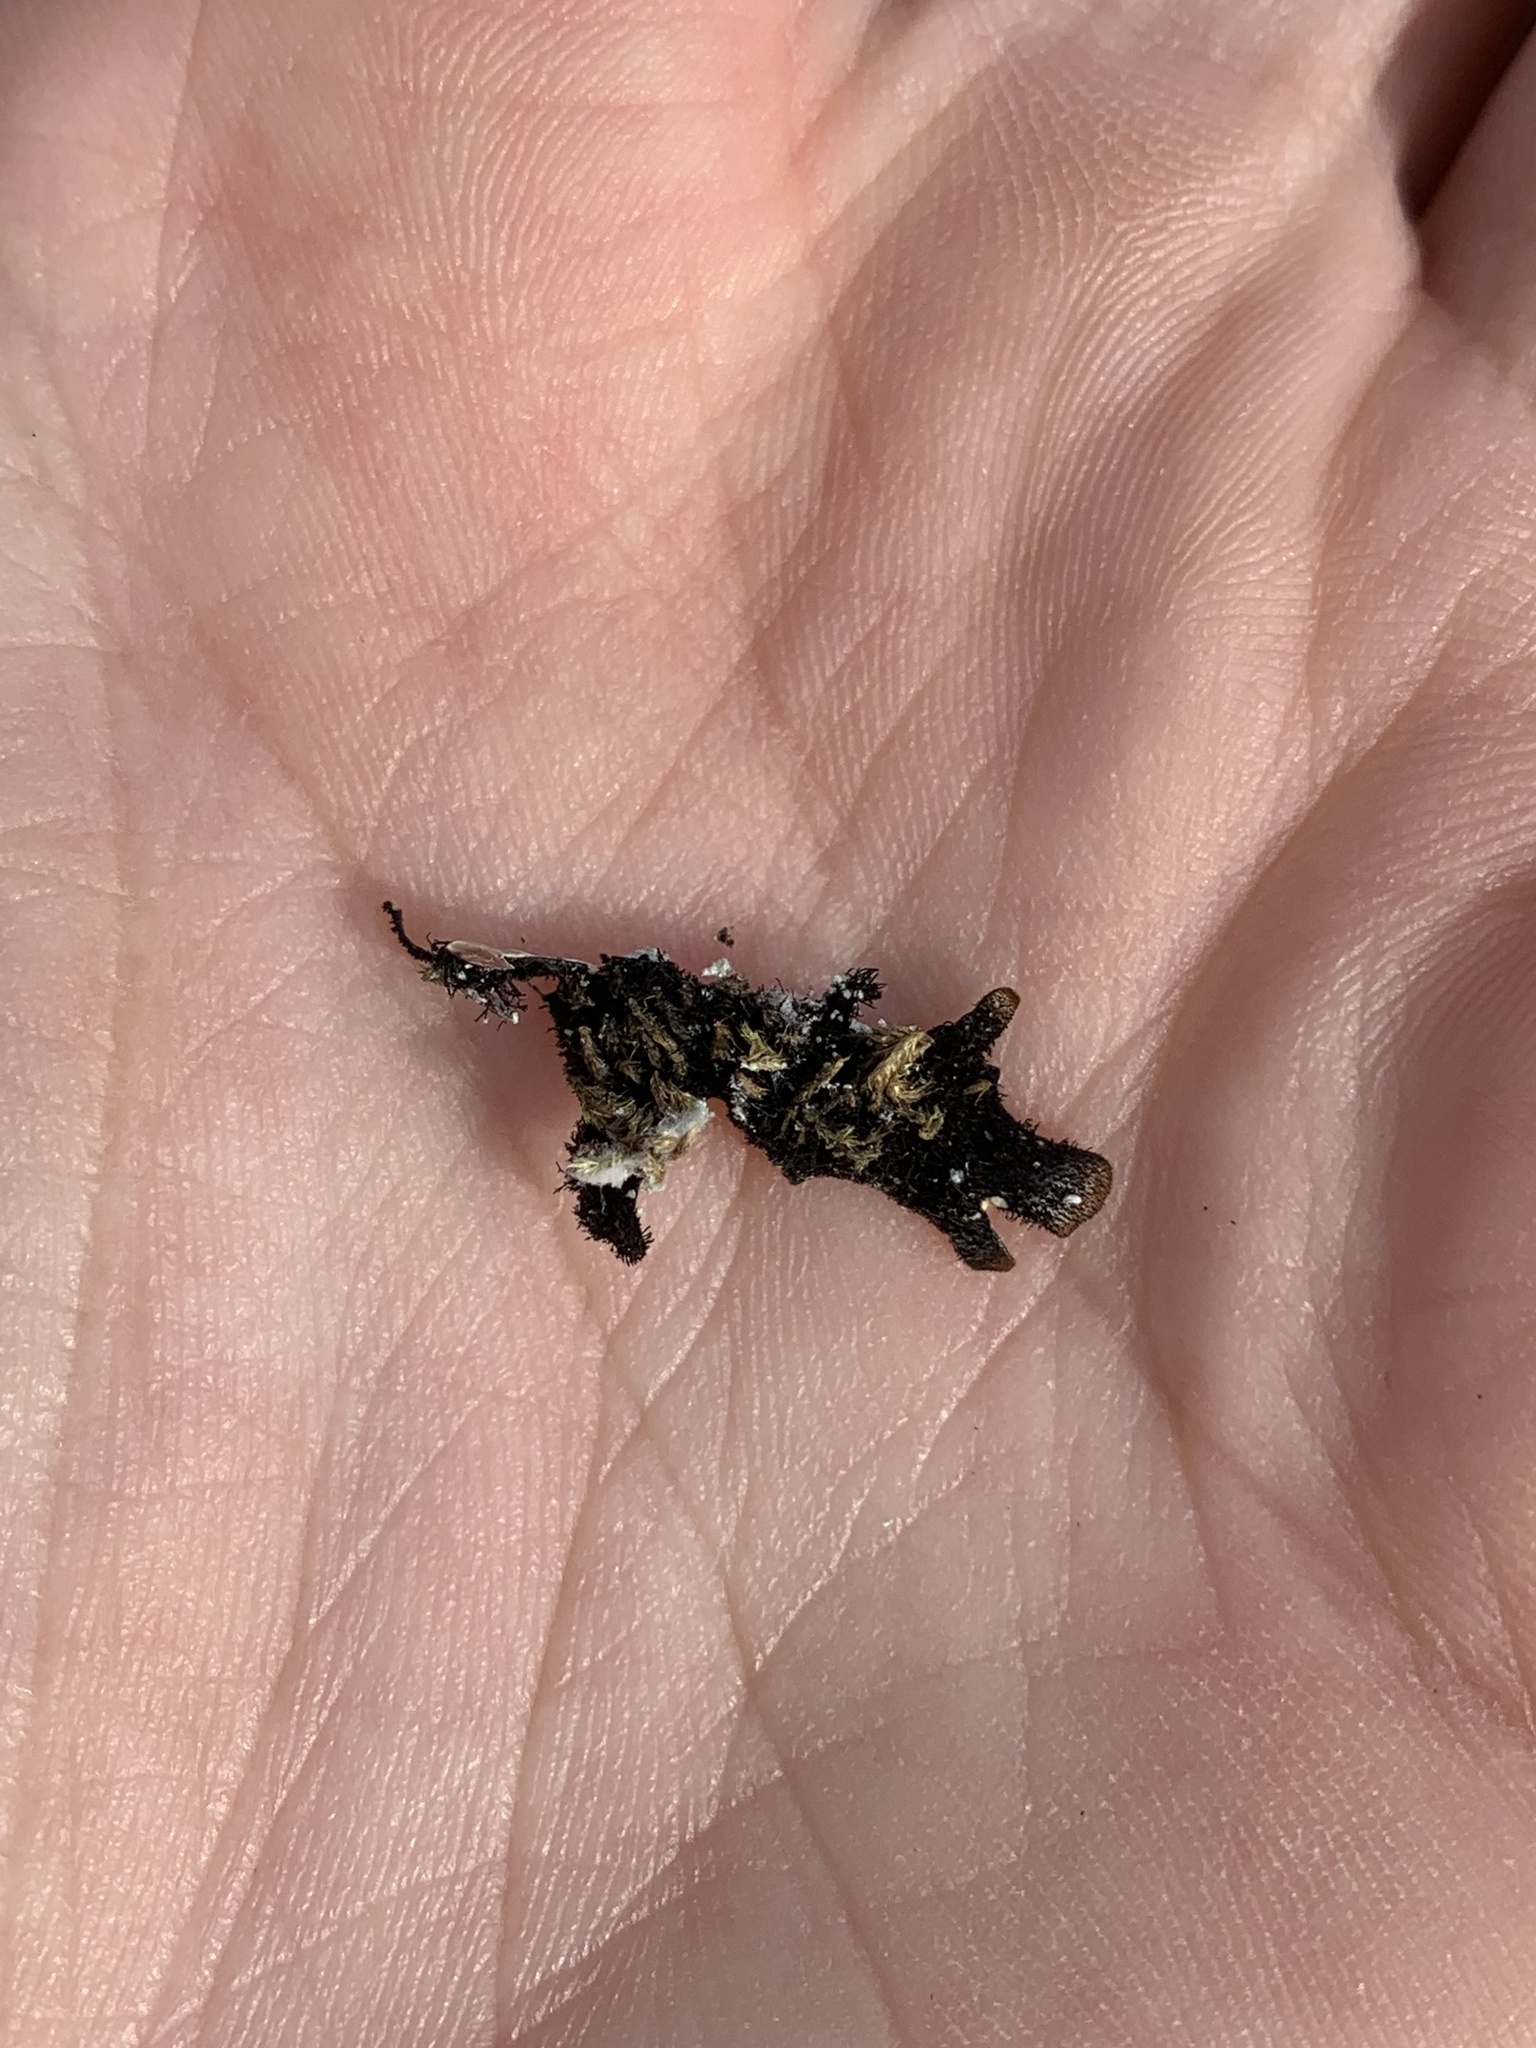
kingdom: Fungi
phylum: Ascomycota
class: Lecanoromycetes
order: Lecanorales
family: Parmeliaceae
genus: Parmelia
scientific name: Parmelia sulcata
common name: Netted shield lichen
